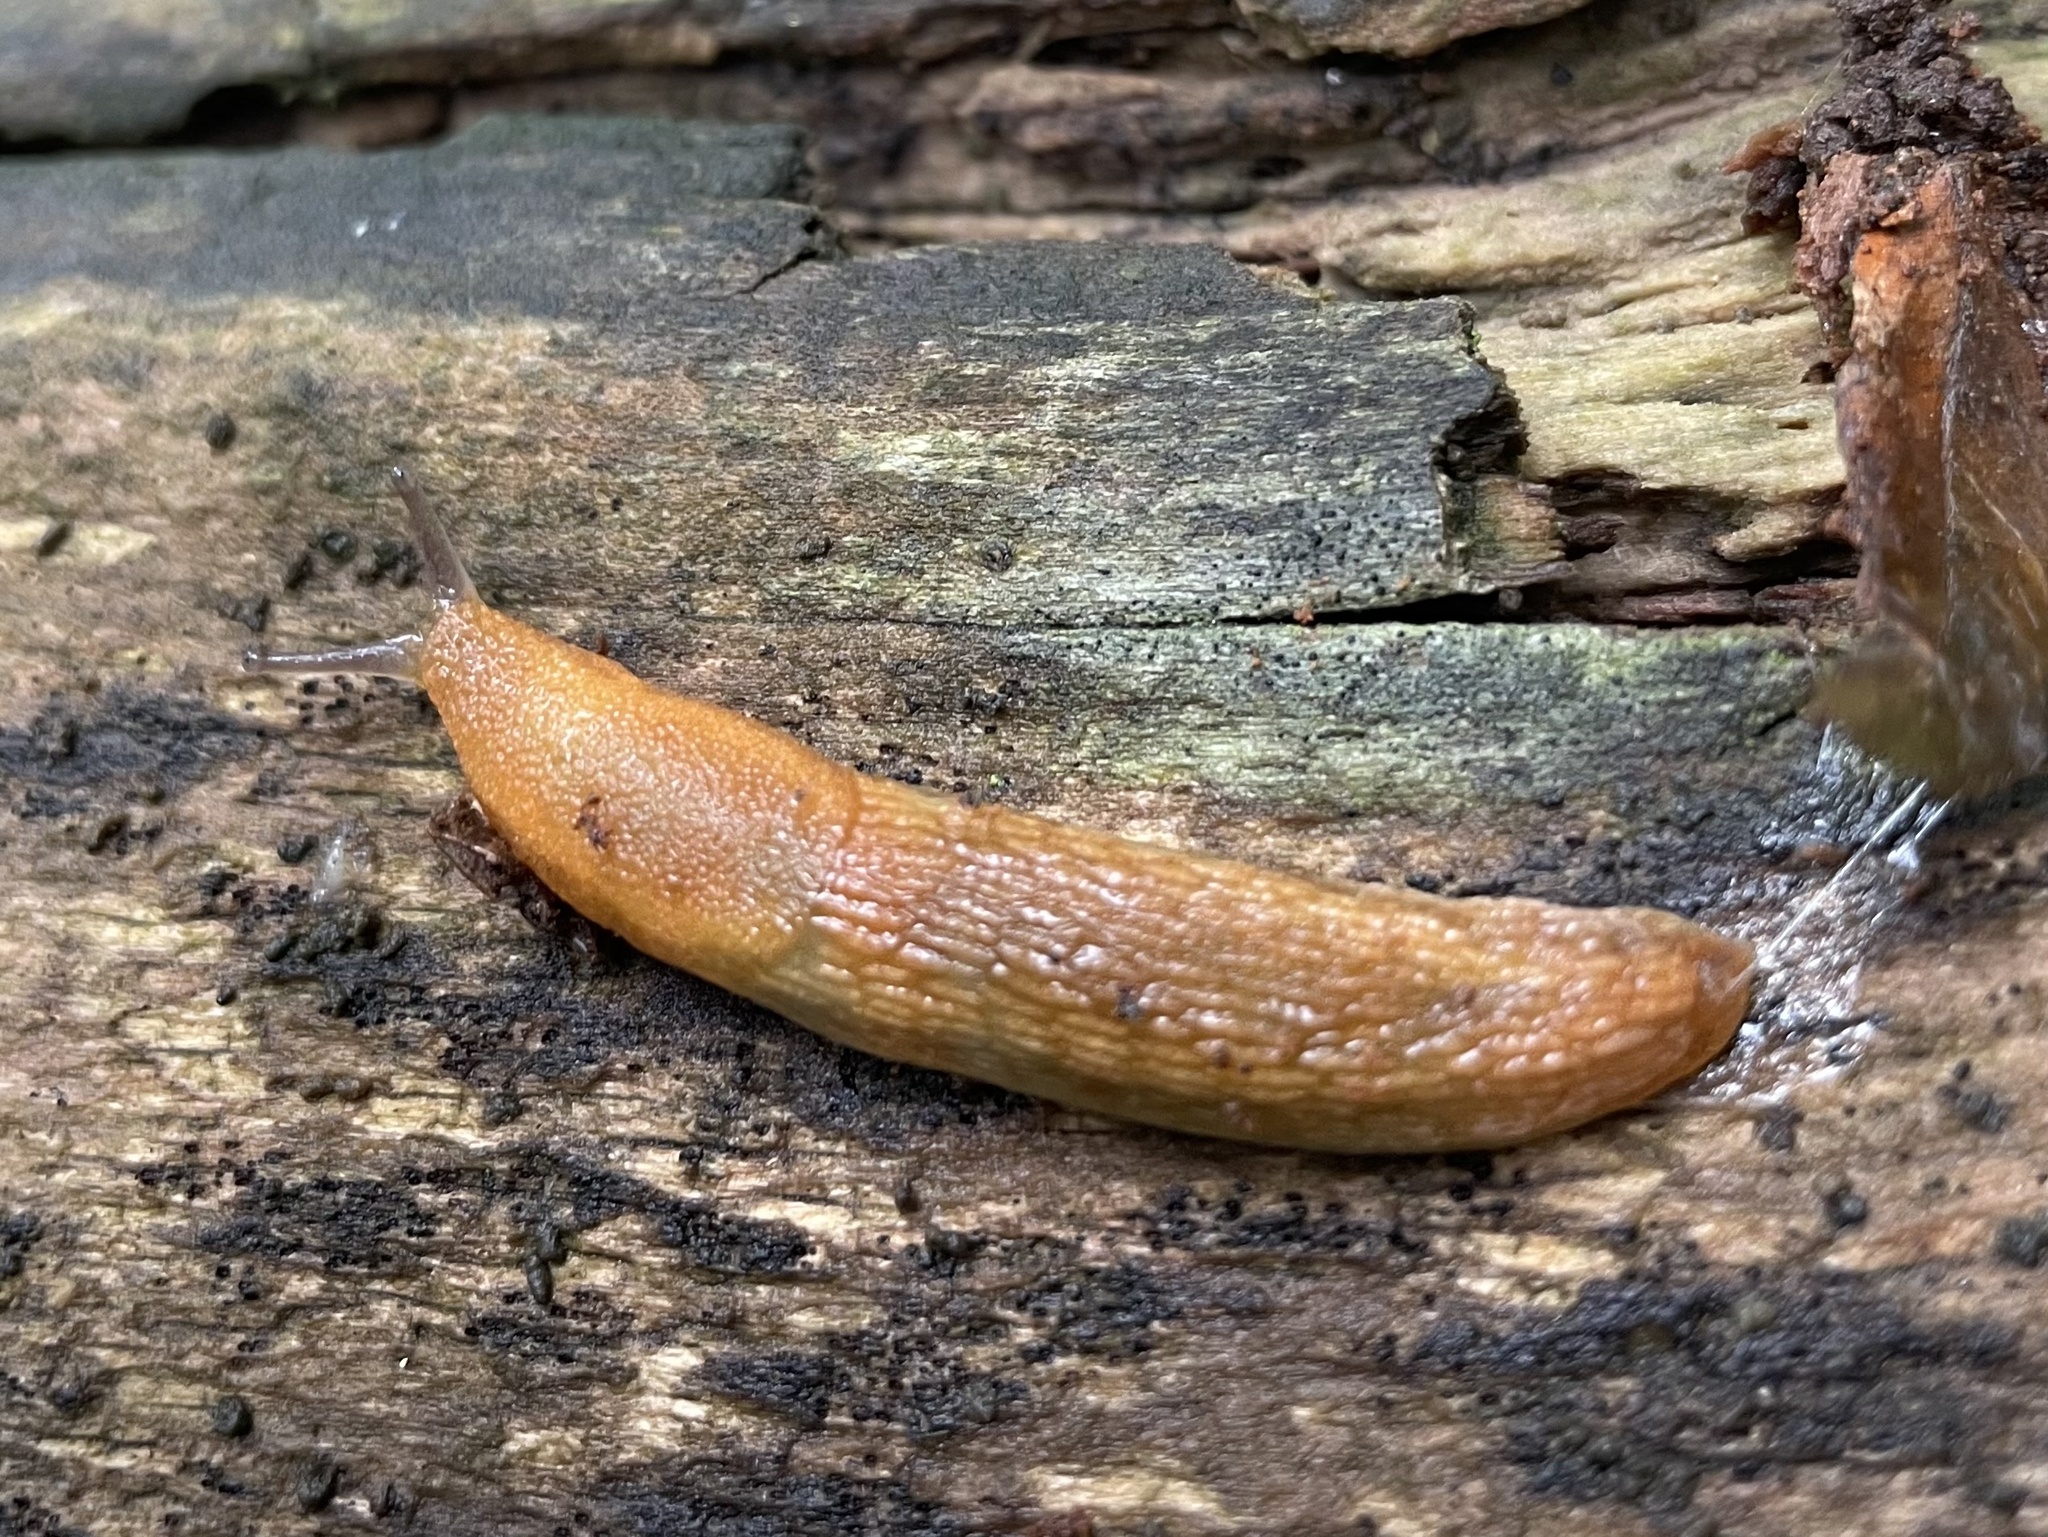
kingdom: Animalia
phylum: Mollusca
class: Gastropoda
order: Stylommatophora
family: Arionidae
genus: Arion
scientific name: Arion subfuscus
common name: Dusky arion
